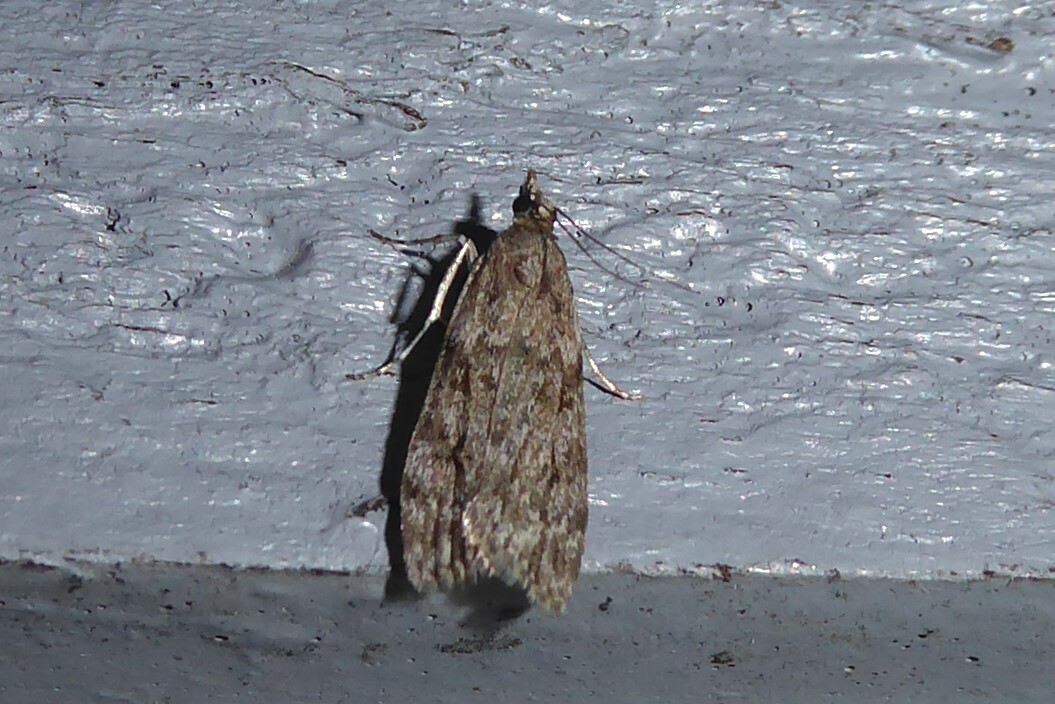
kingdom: Animalia
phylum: Arthropoda
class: Insecta
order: Lepidoptera
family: Crambidae
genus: Eudonia
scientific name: Eudonia cymatias
